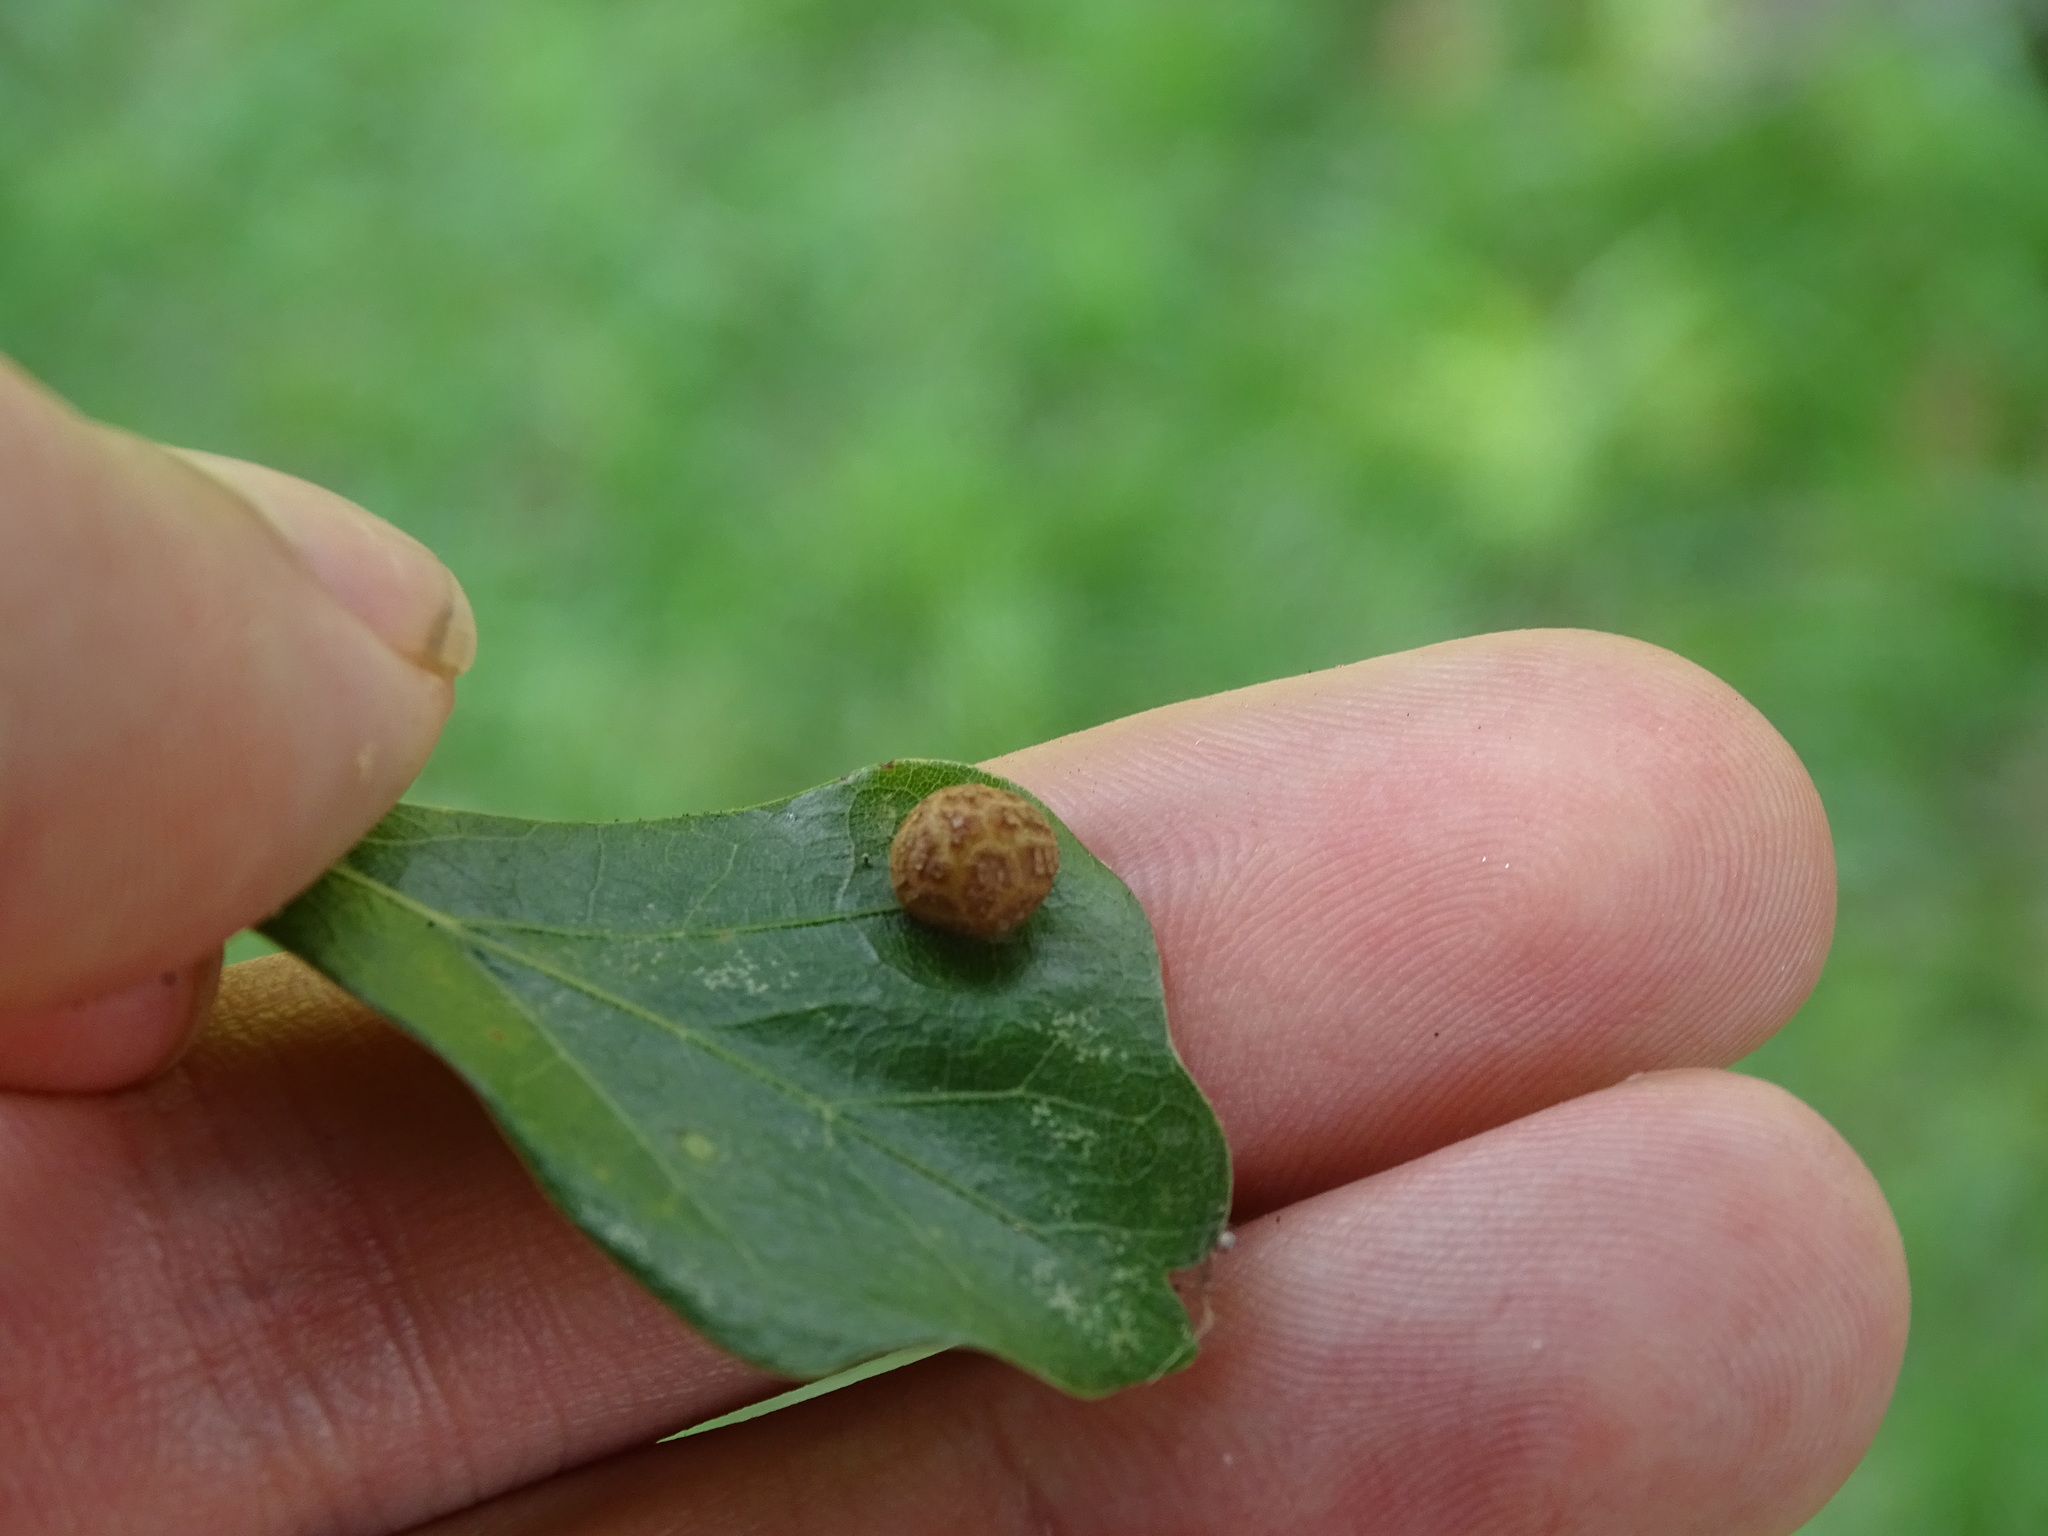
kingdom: Animalia
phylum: Arthropoda
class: Insecta
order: Diptera
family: Cecidomyiidae
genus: Polystepha
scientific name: Polystepha pilulae
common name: Oak leaf gall midge
